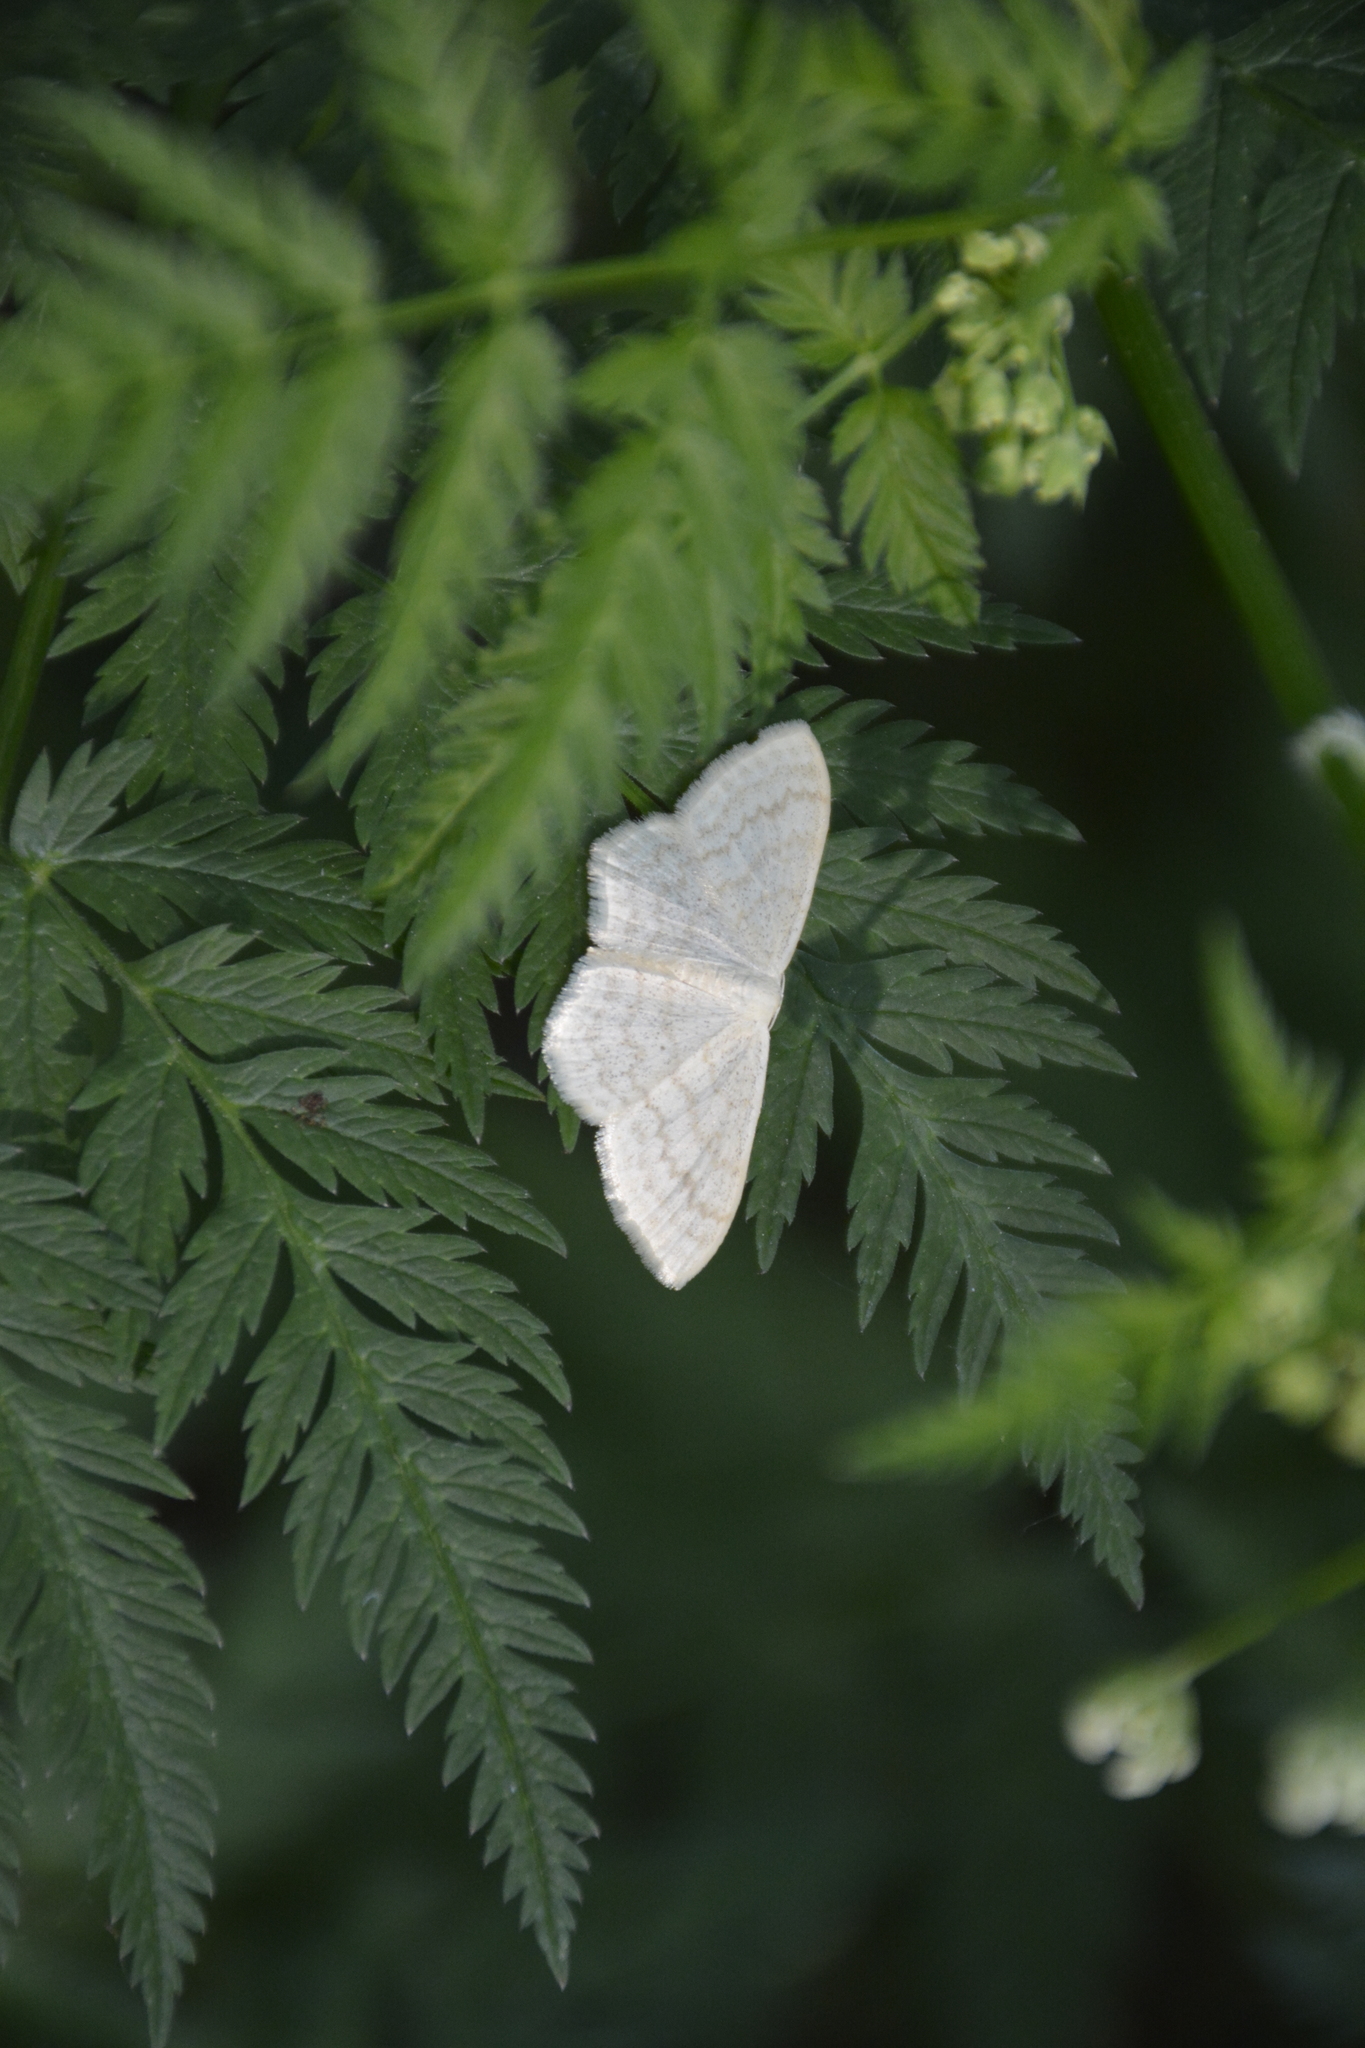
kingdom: Animalia
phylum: Arthropoda
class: Insecta
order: Lepidoptera
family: Geometridae
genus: Scopula
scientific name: Scopula floslactata
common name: Cream wave
